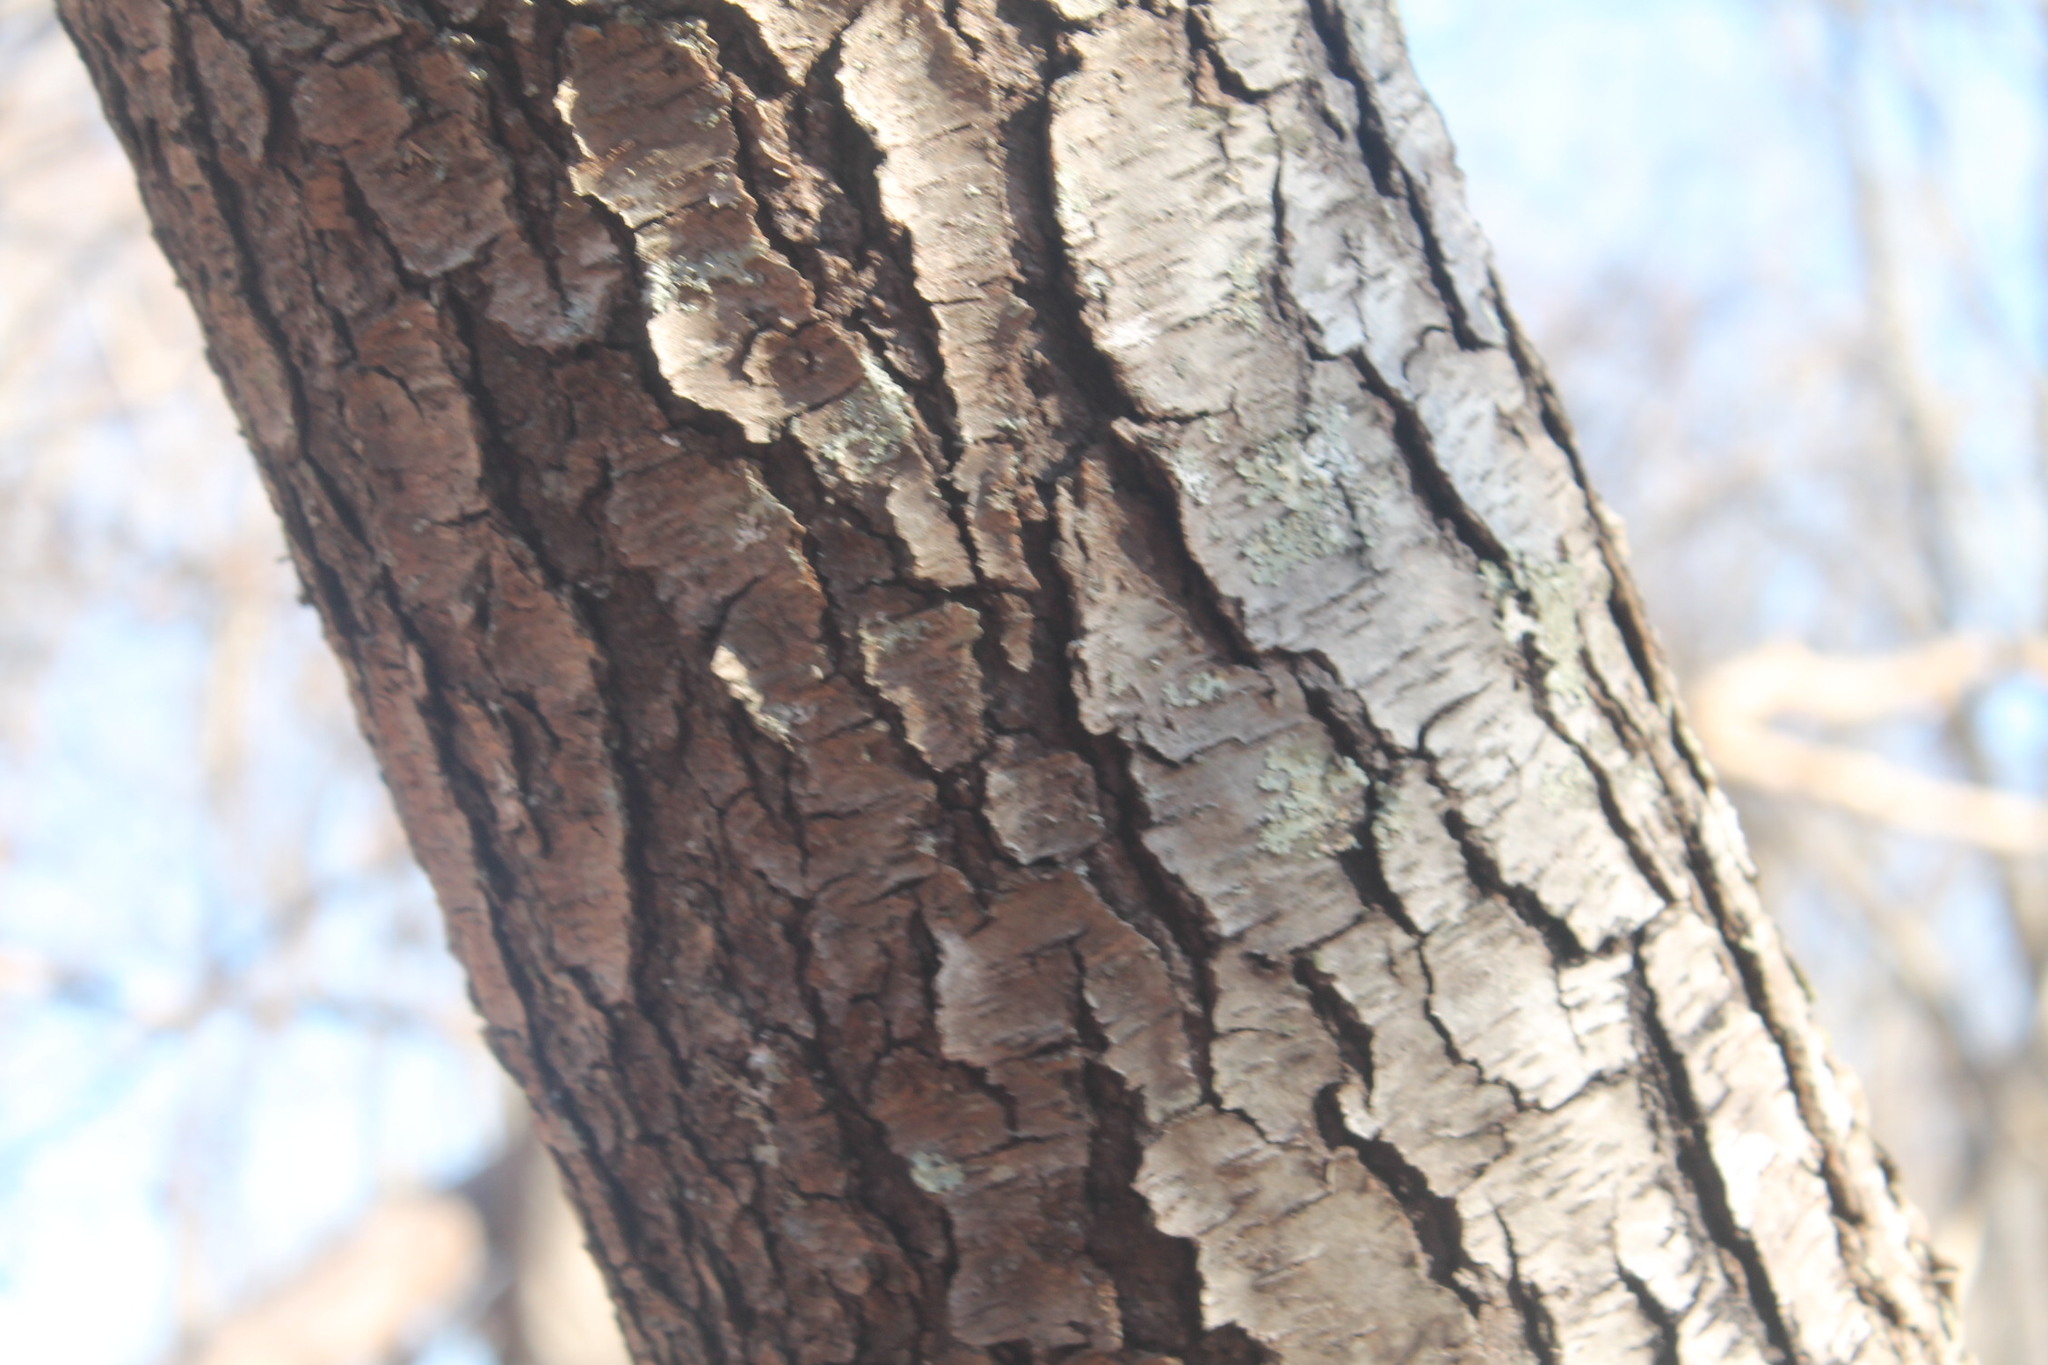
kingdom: Plantae
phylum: Tracheophyta
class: Magnoliopsida
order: Rosales
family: Rosaceae
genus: Prunus
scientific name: Prunus serotina
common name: Black cherry
